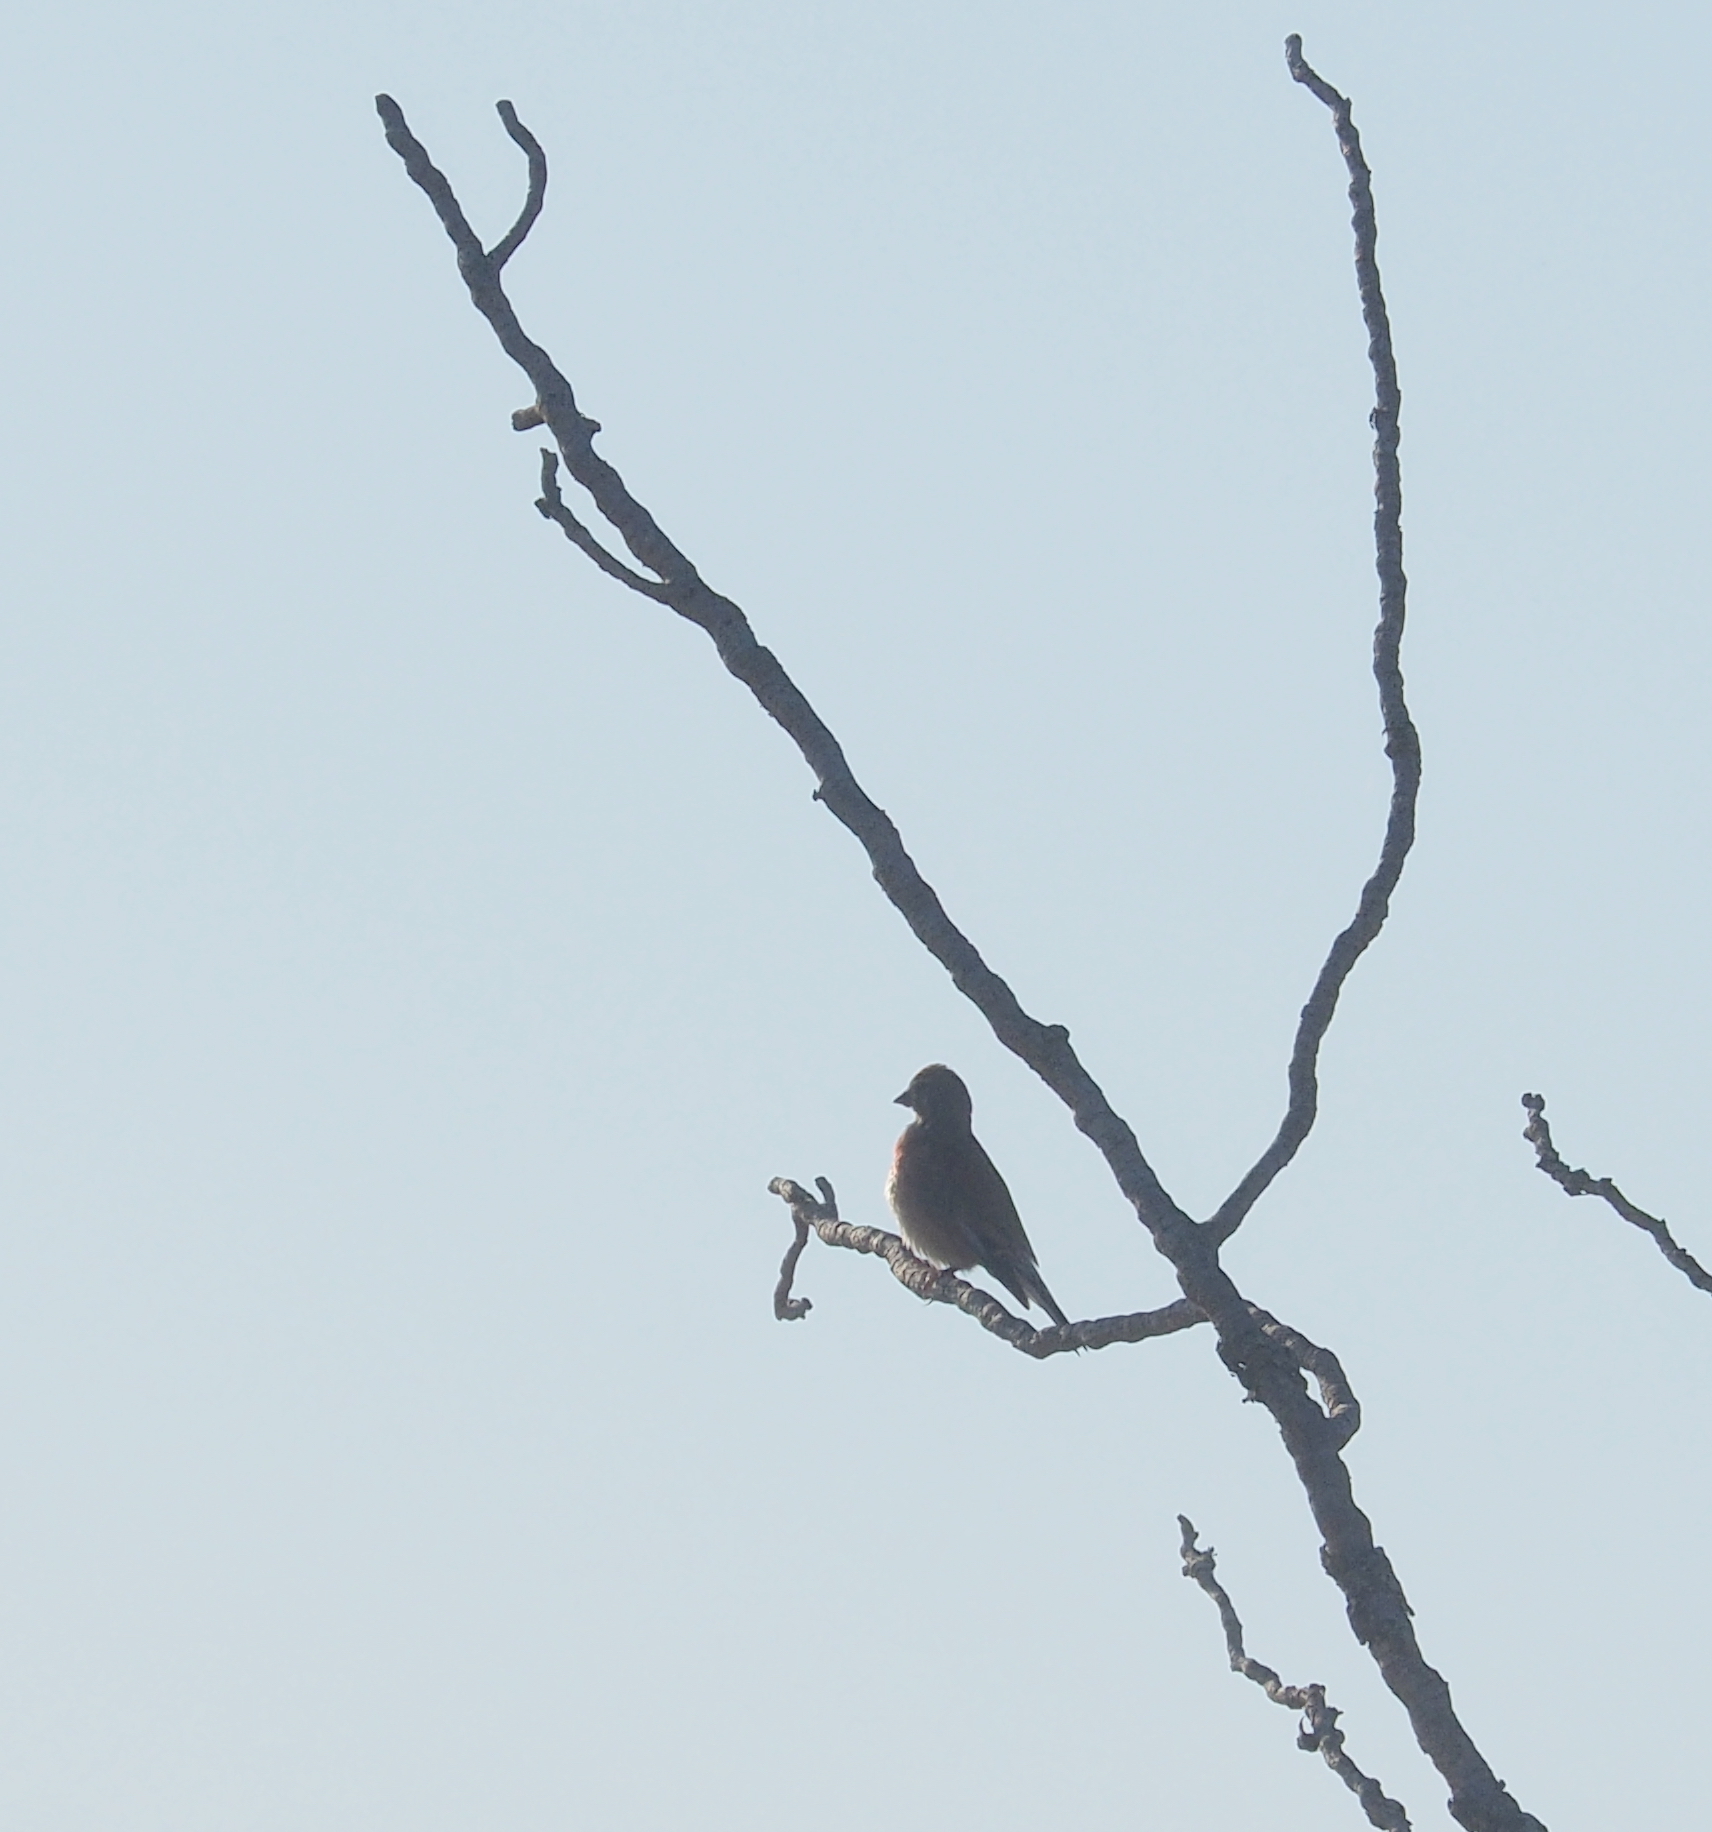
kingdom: Animalia
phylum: Chordata
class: Aves
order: Passeriformes
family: Fringillidae
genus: Linaria
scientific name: Linaria cannabina
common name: Common linnet
